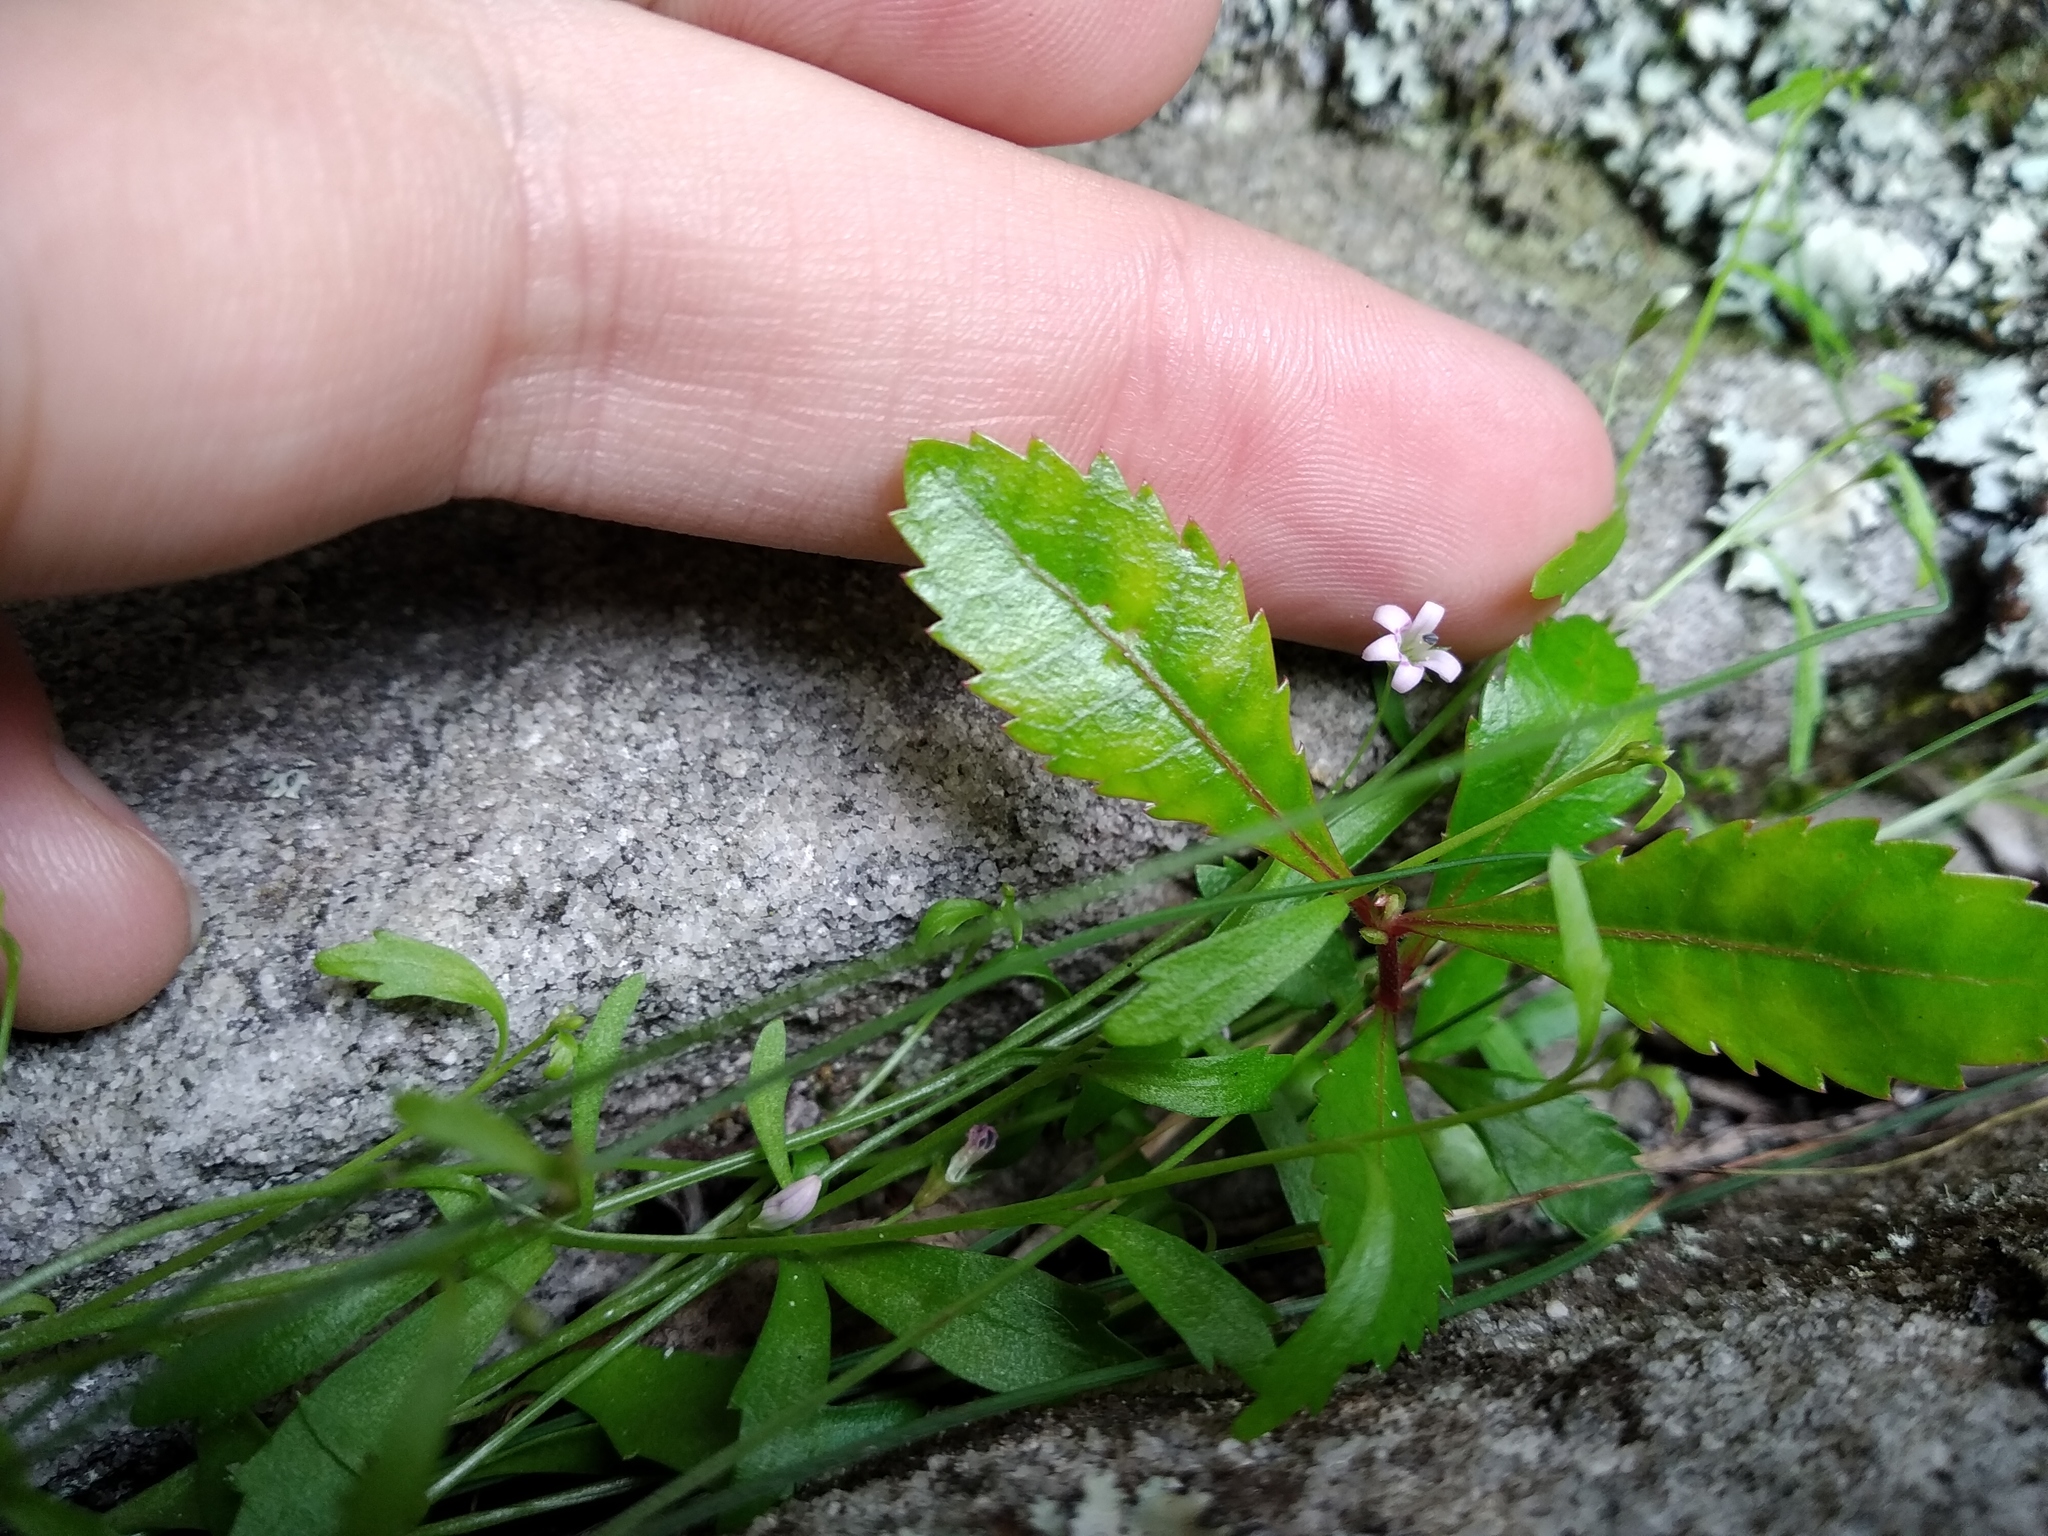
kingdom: Plantae
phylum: Tracheophyta
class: Magnoliopsida
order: Asterales
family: Campanulaceae
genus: Lobelia
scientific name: Lobelia eckloniana
